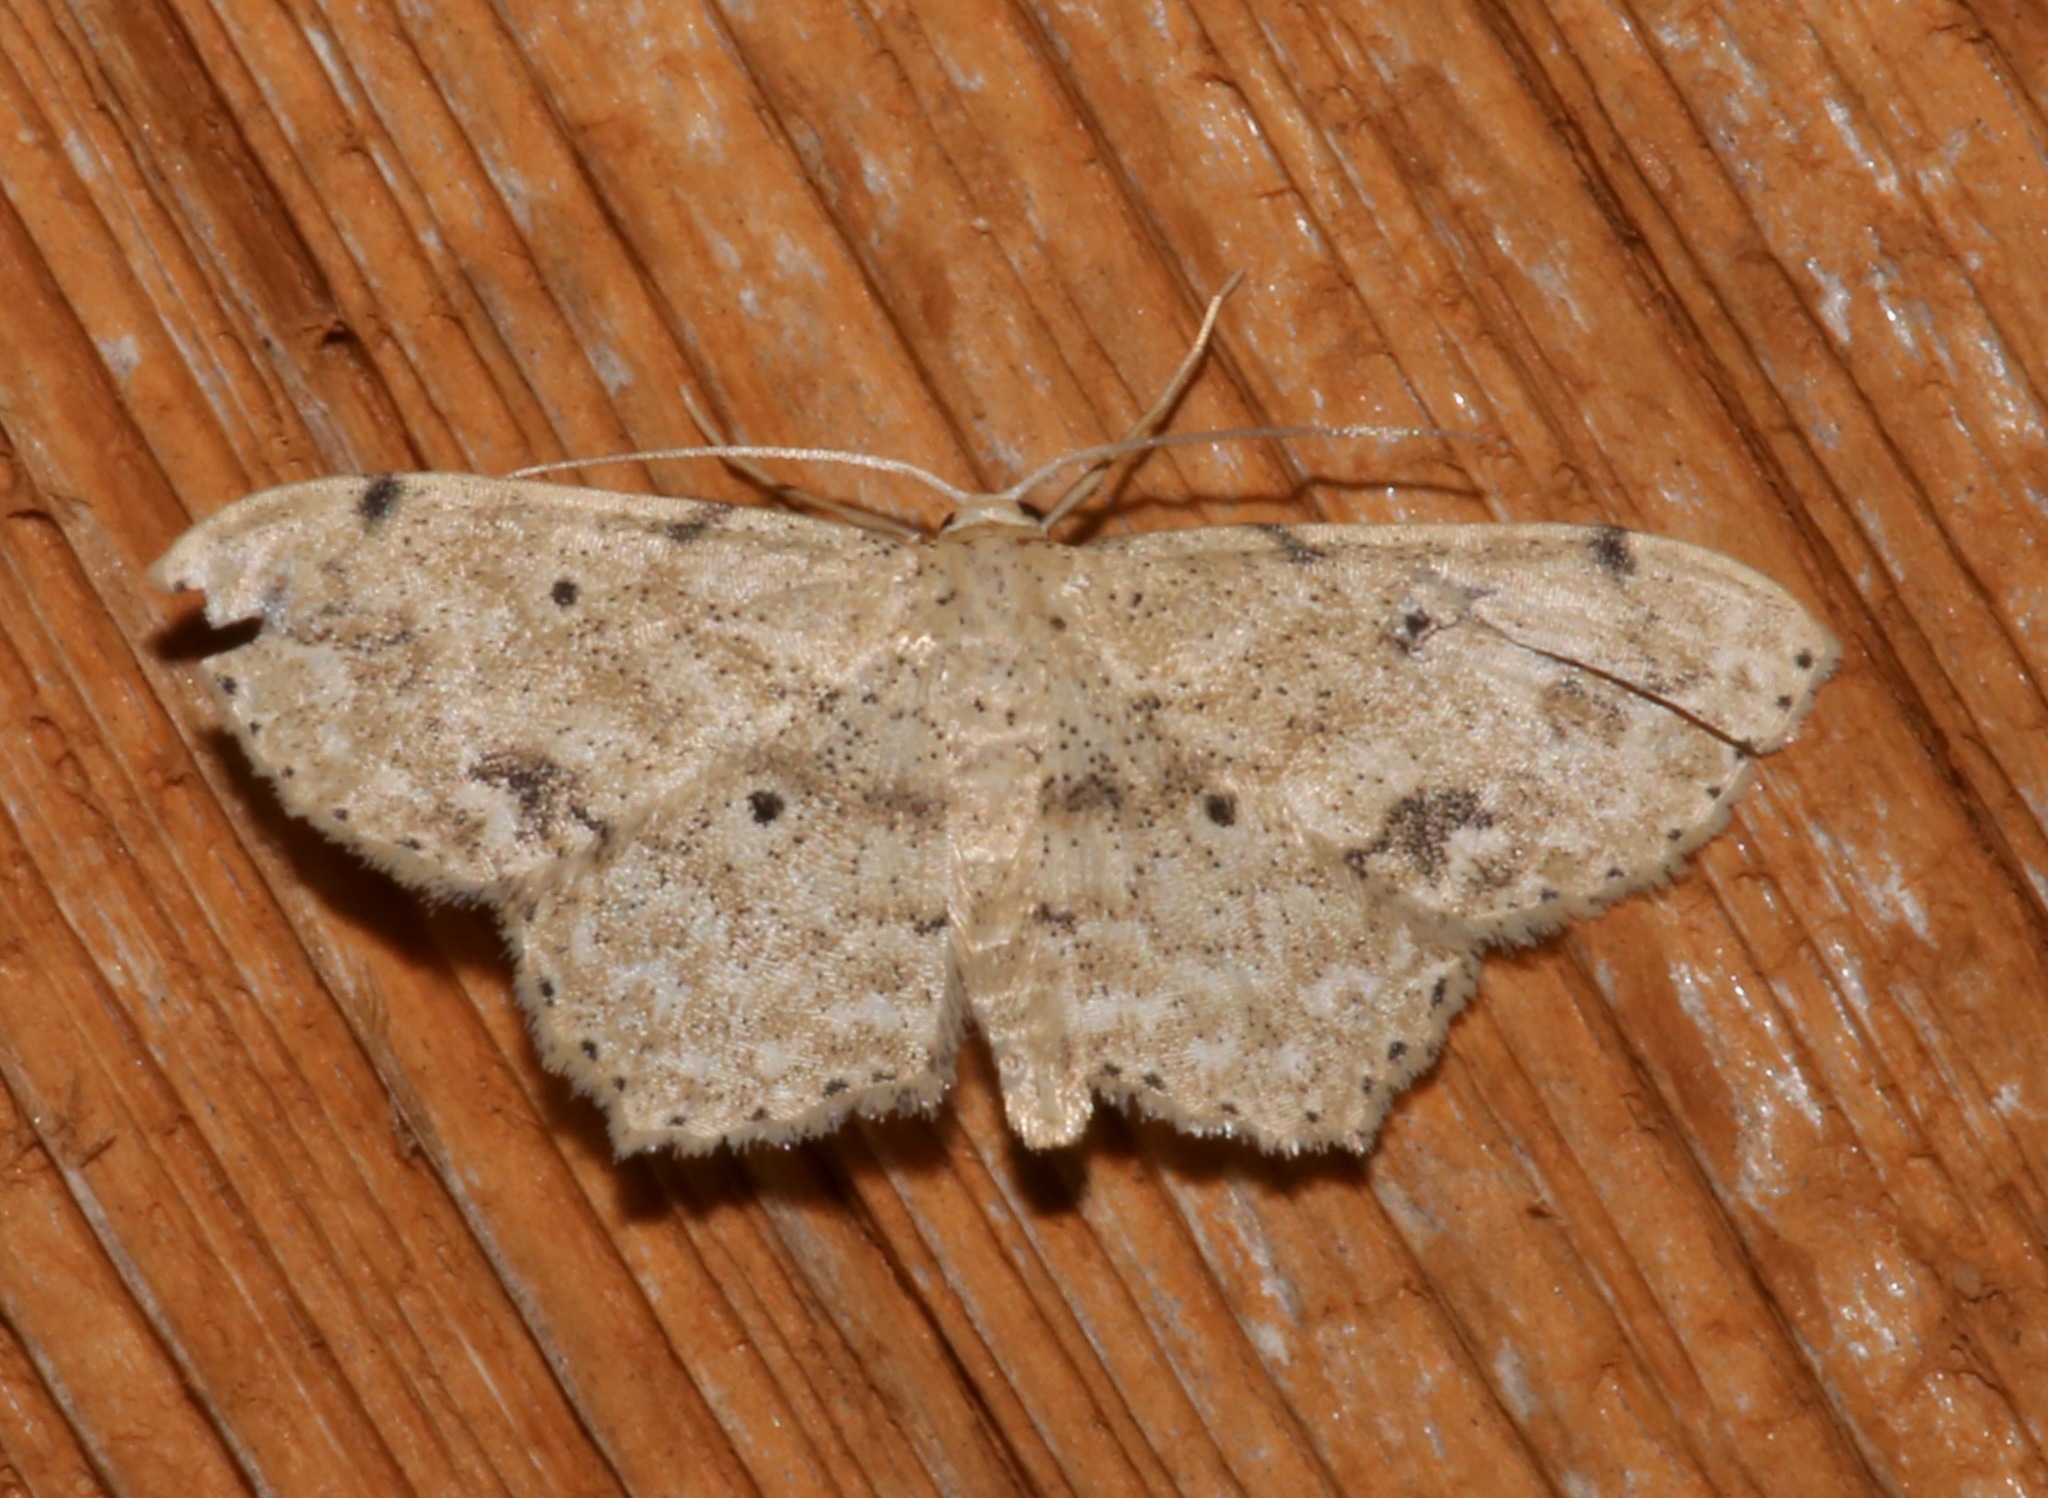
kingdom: Animalia
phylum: Arthropoda
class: Insecta
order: Lepidoptera
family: Geometridae
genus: Scopula
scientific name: Scopula compensata
